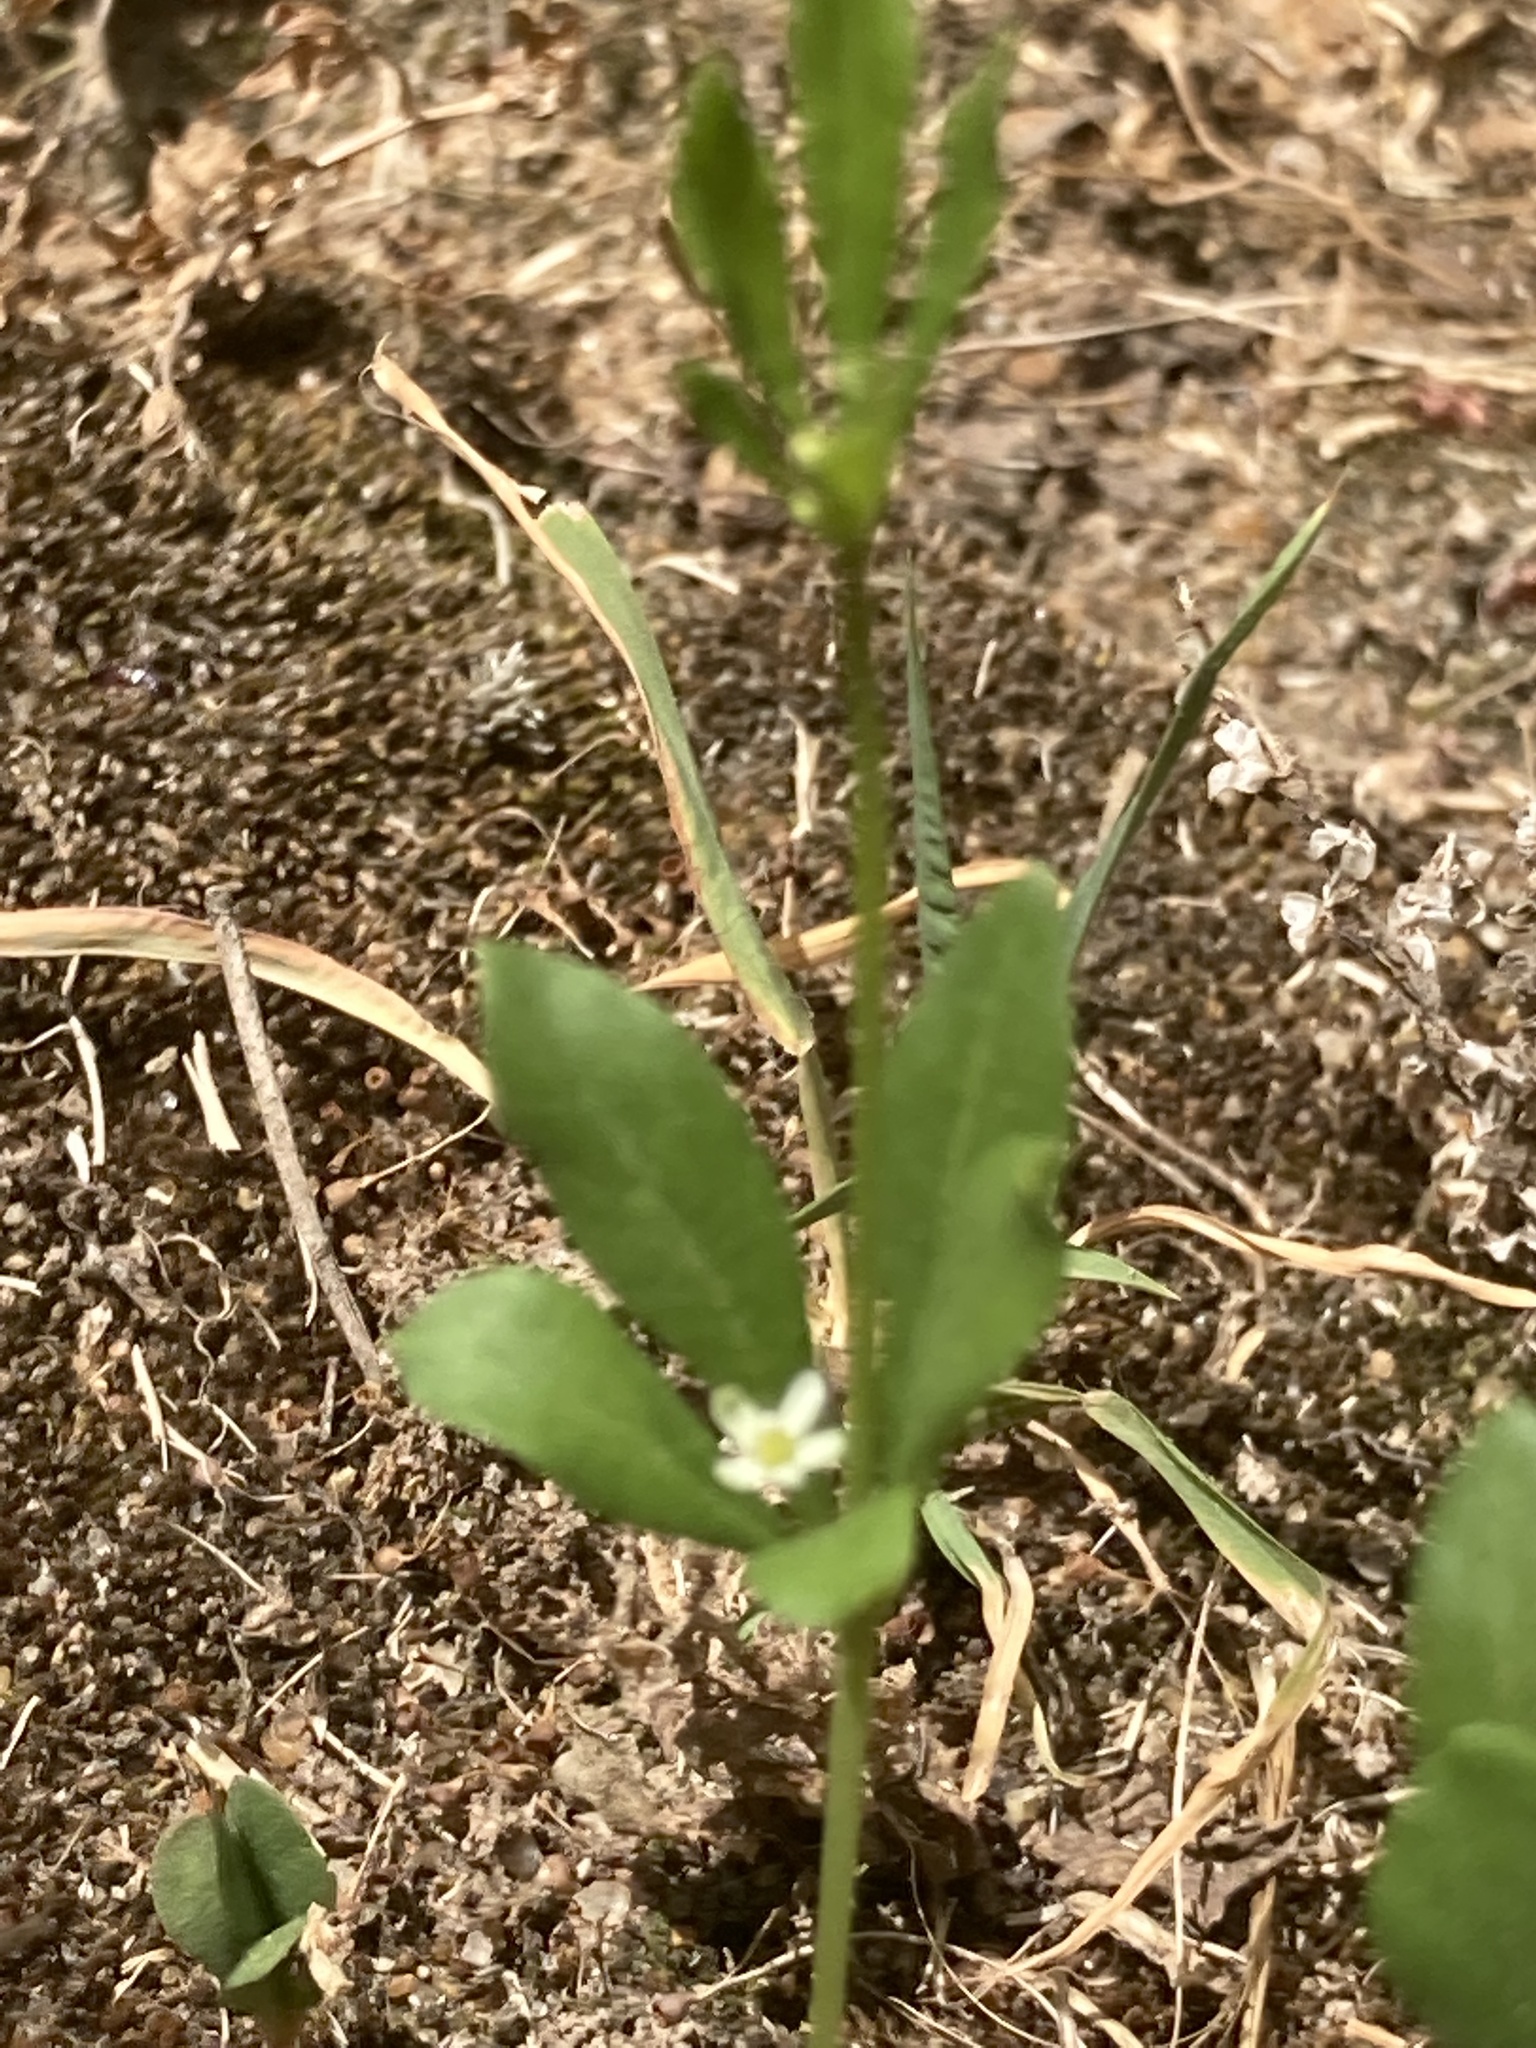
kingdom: Plantae
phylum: Tracheophyta
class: Magnoliopsida
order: Caryophyllales
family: Molluginaceae
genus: Mollugo
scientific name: Mollugo verticillata
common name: Green carpetweed
